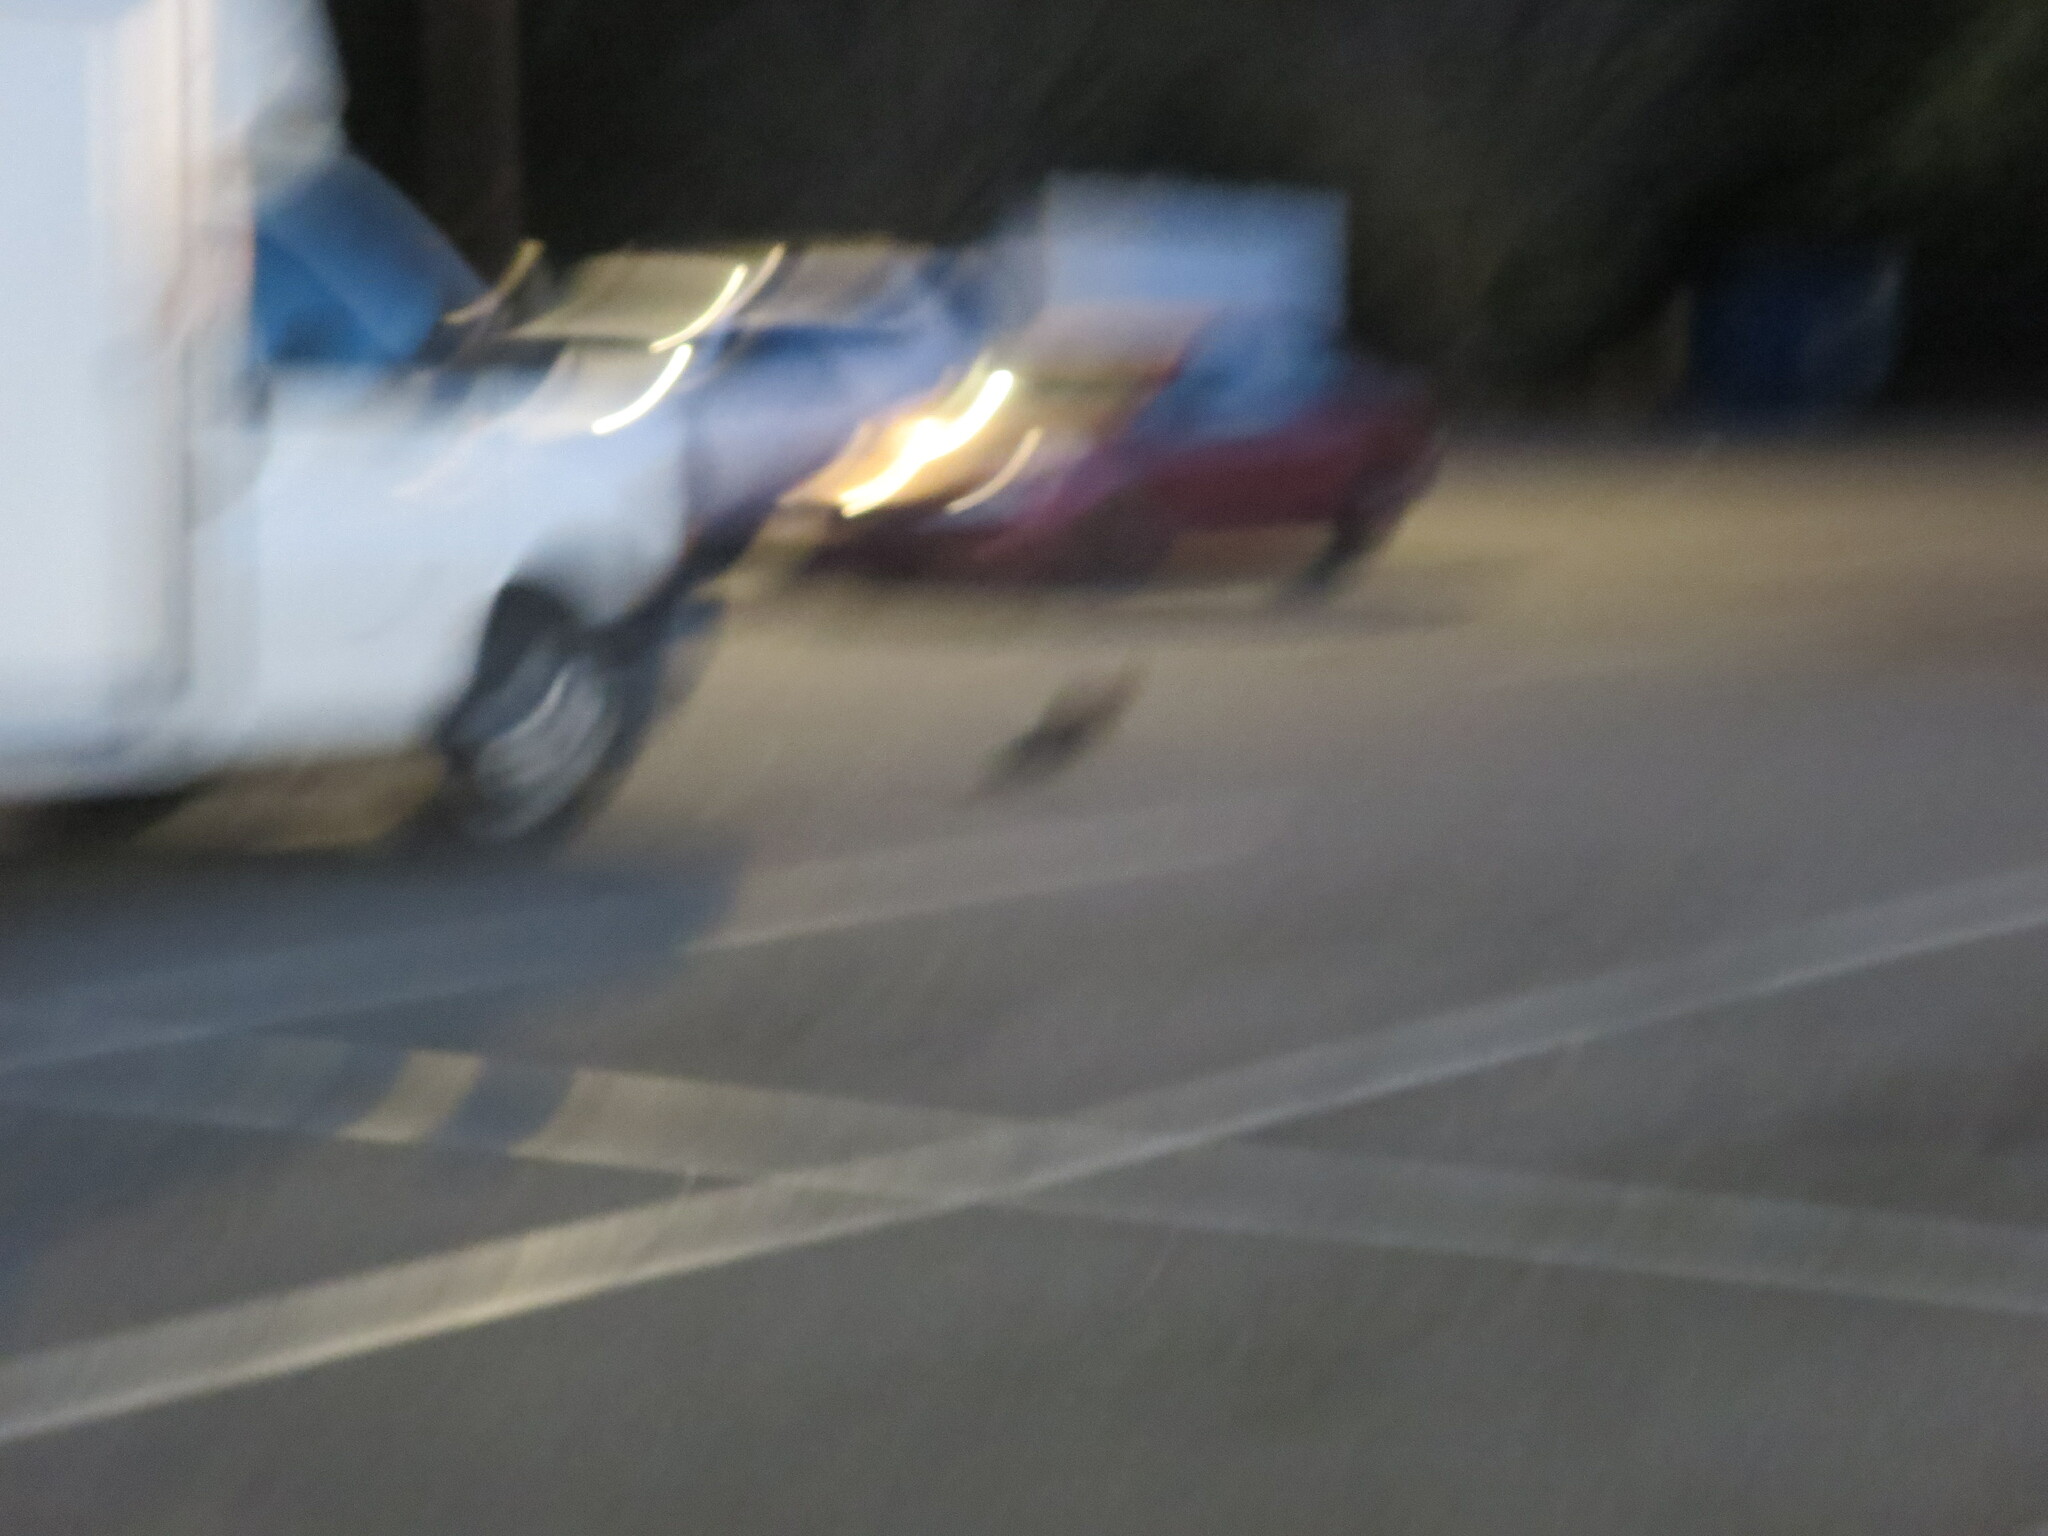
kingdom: Animalia
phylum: Chordata
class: Mammalia
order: Carnivora
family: Felidae
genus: Felis
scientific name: Felis catus
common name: Domestic cat
